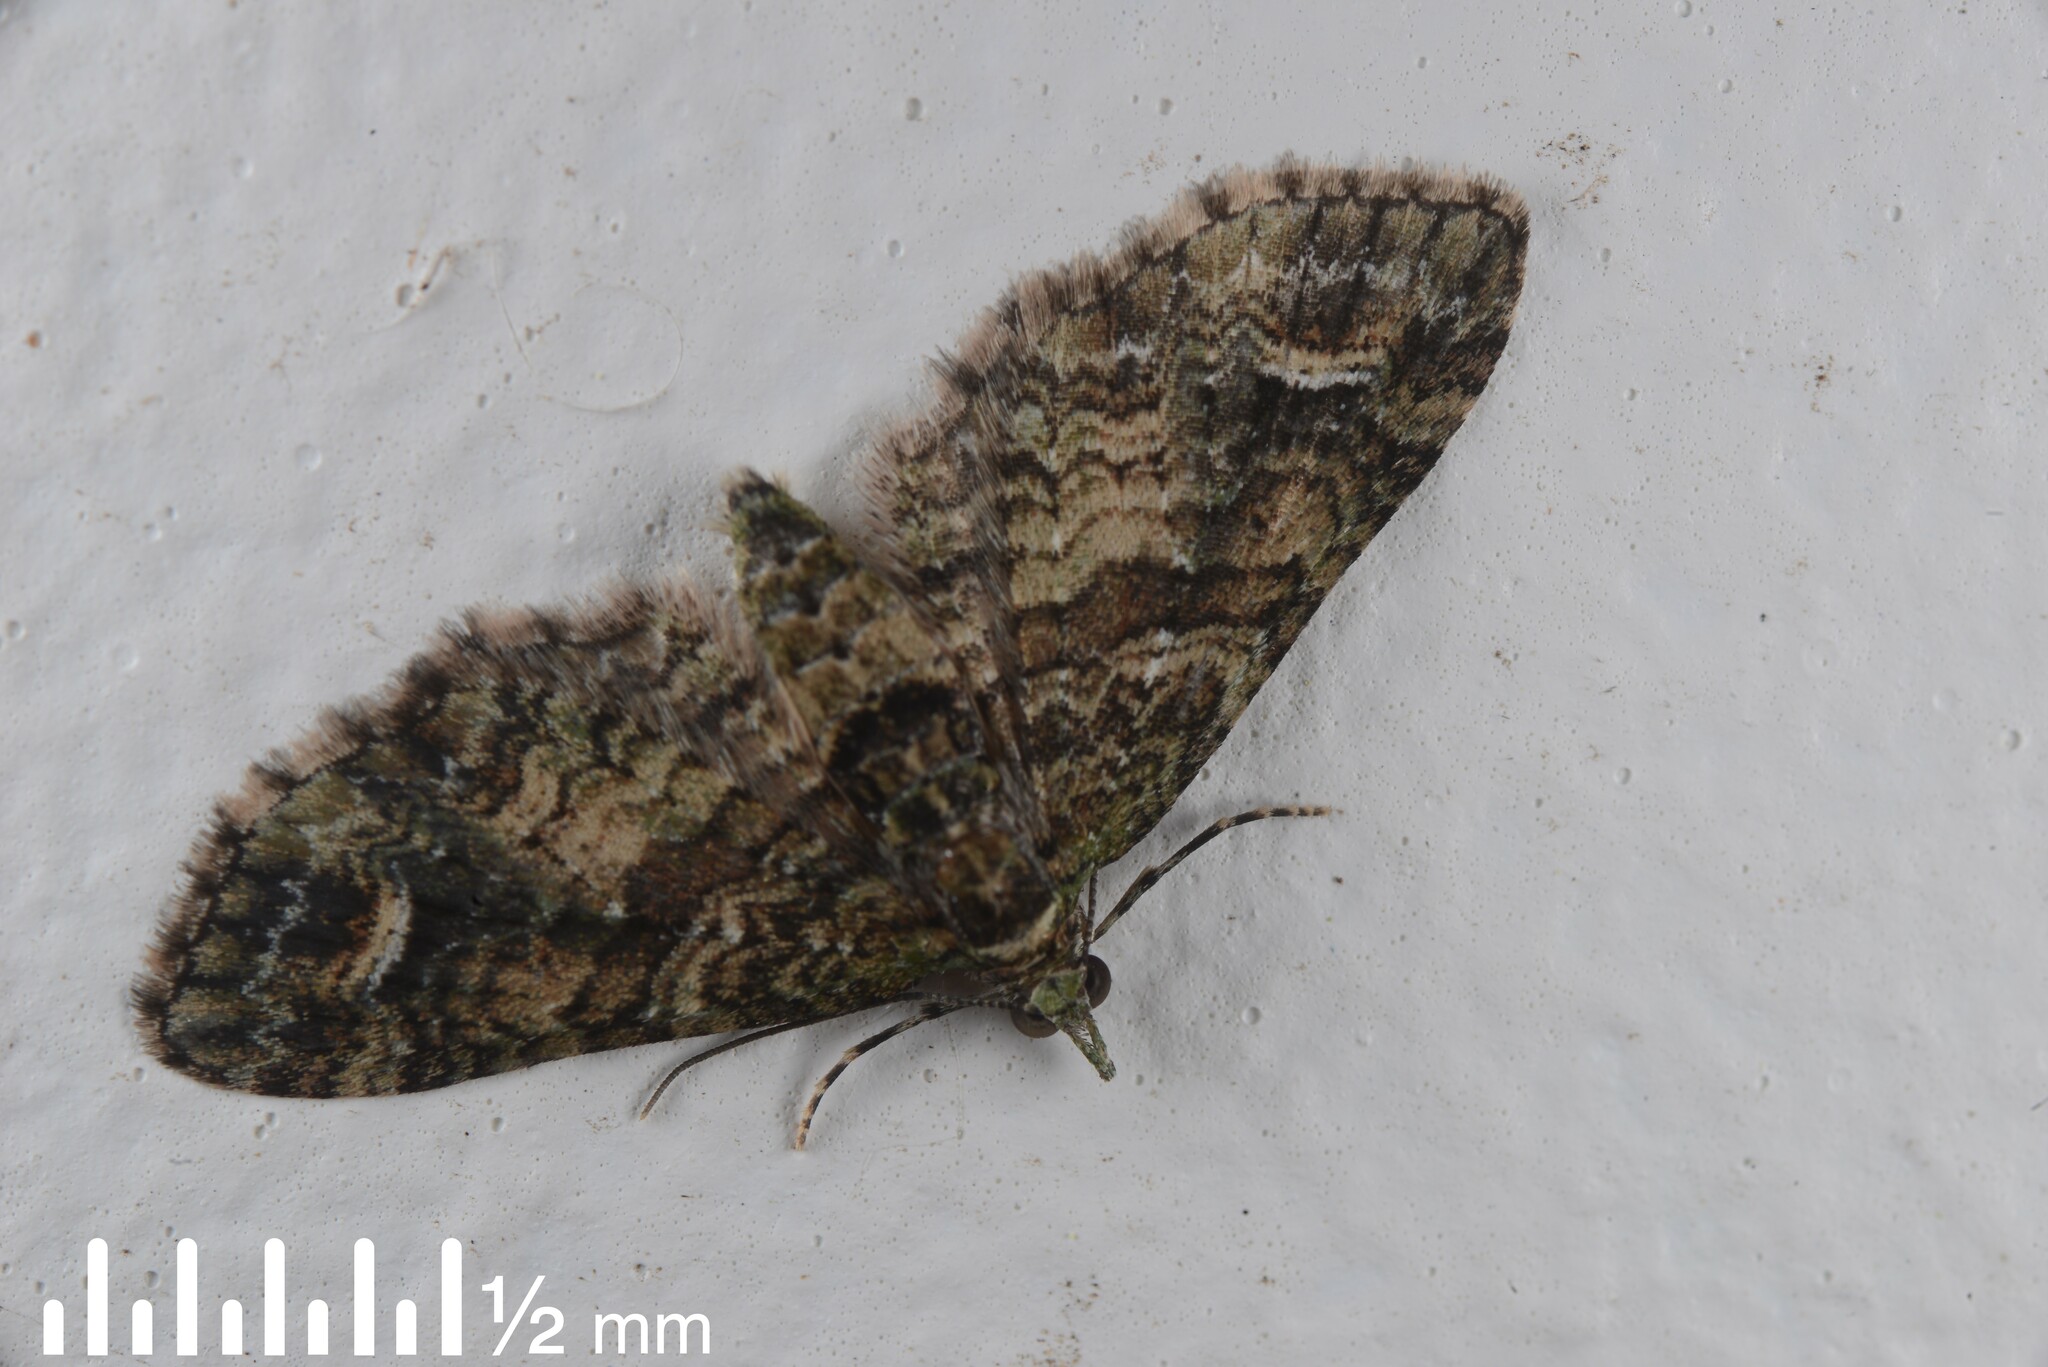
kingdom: Animalia
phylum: Arthropoda
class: Insecta
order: Lepidoptera
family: Geometridae
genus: Idaea
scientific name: Idaea mutanda
